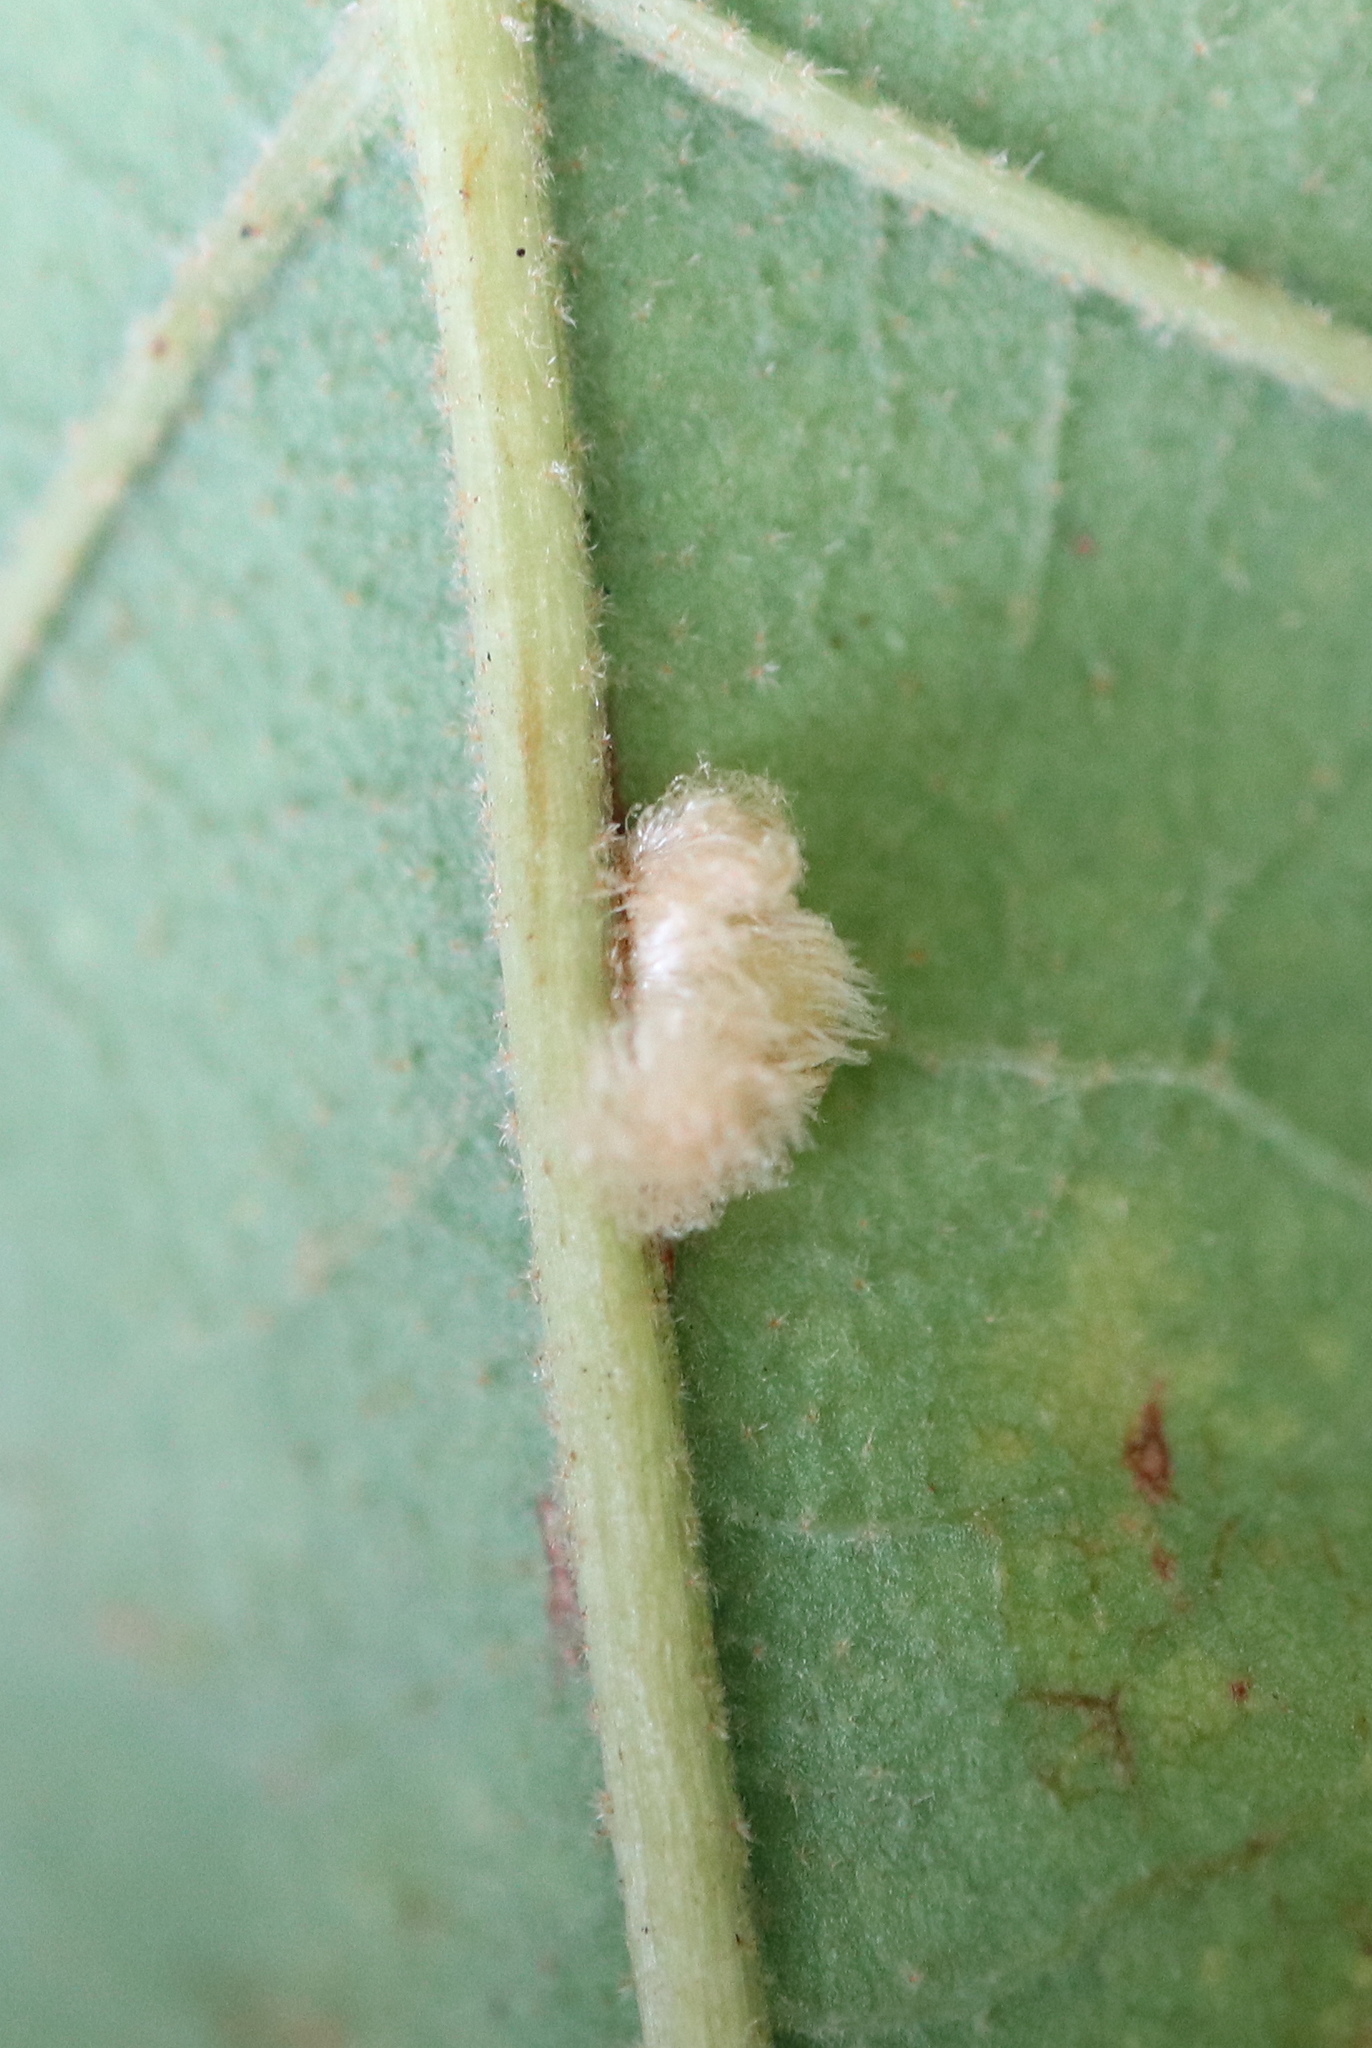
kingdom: Animalia
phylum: Arthropoda
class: Insecta
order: Hymenoptera
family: Cynipidae
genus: Andricus
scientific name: Andricus Druon pattoni
